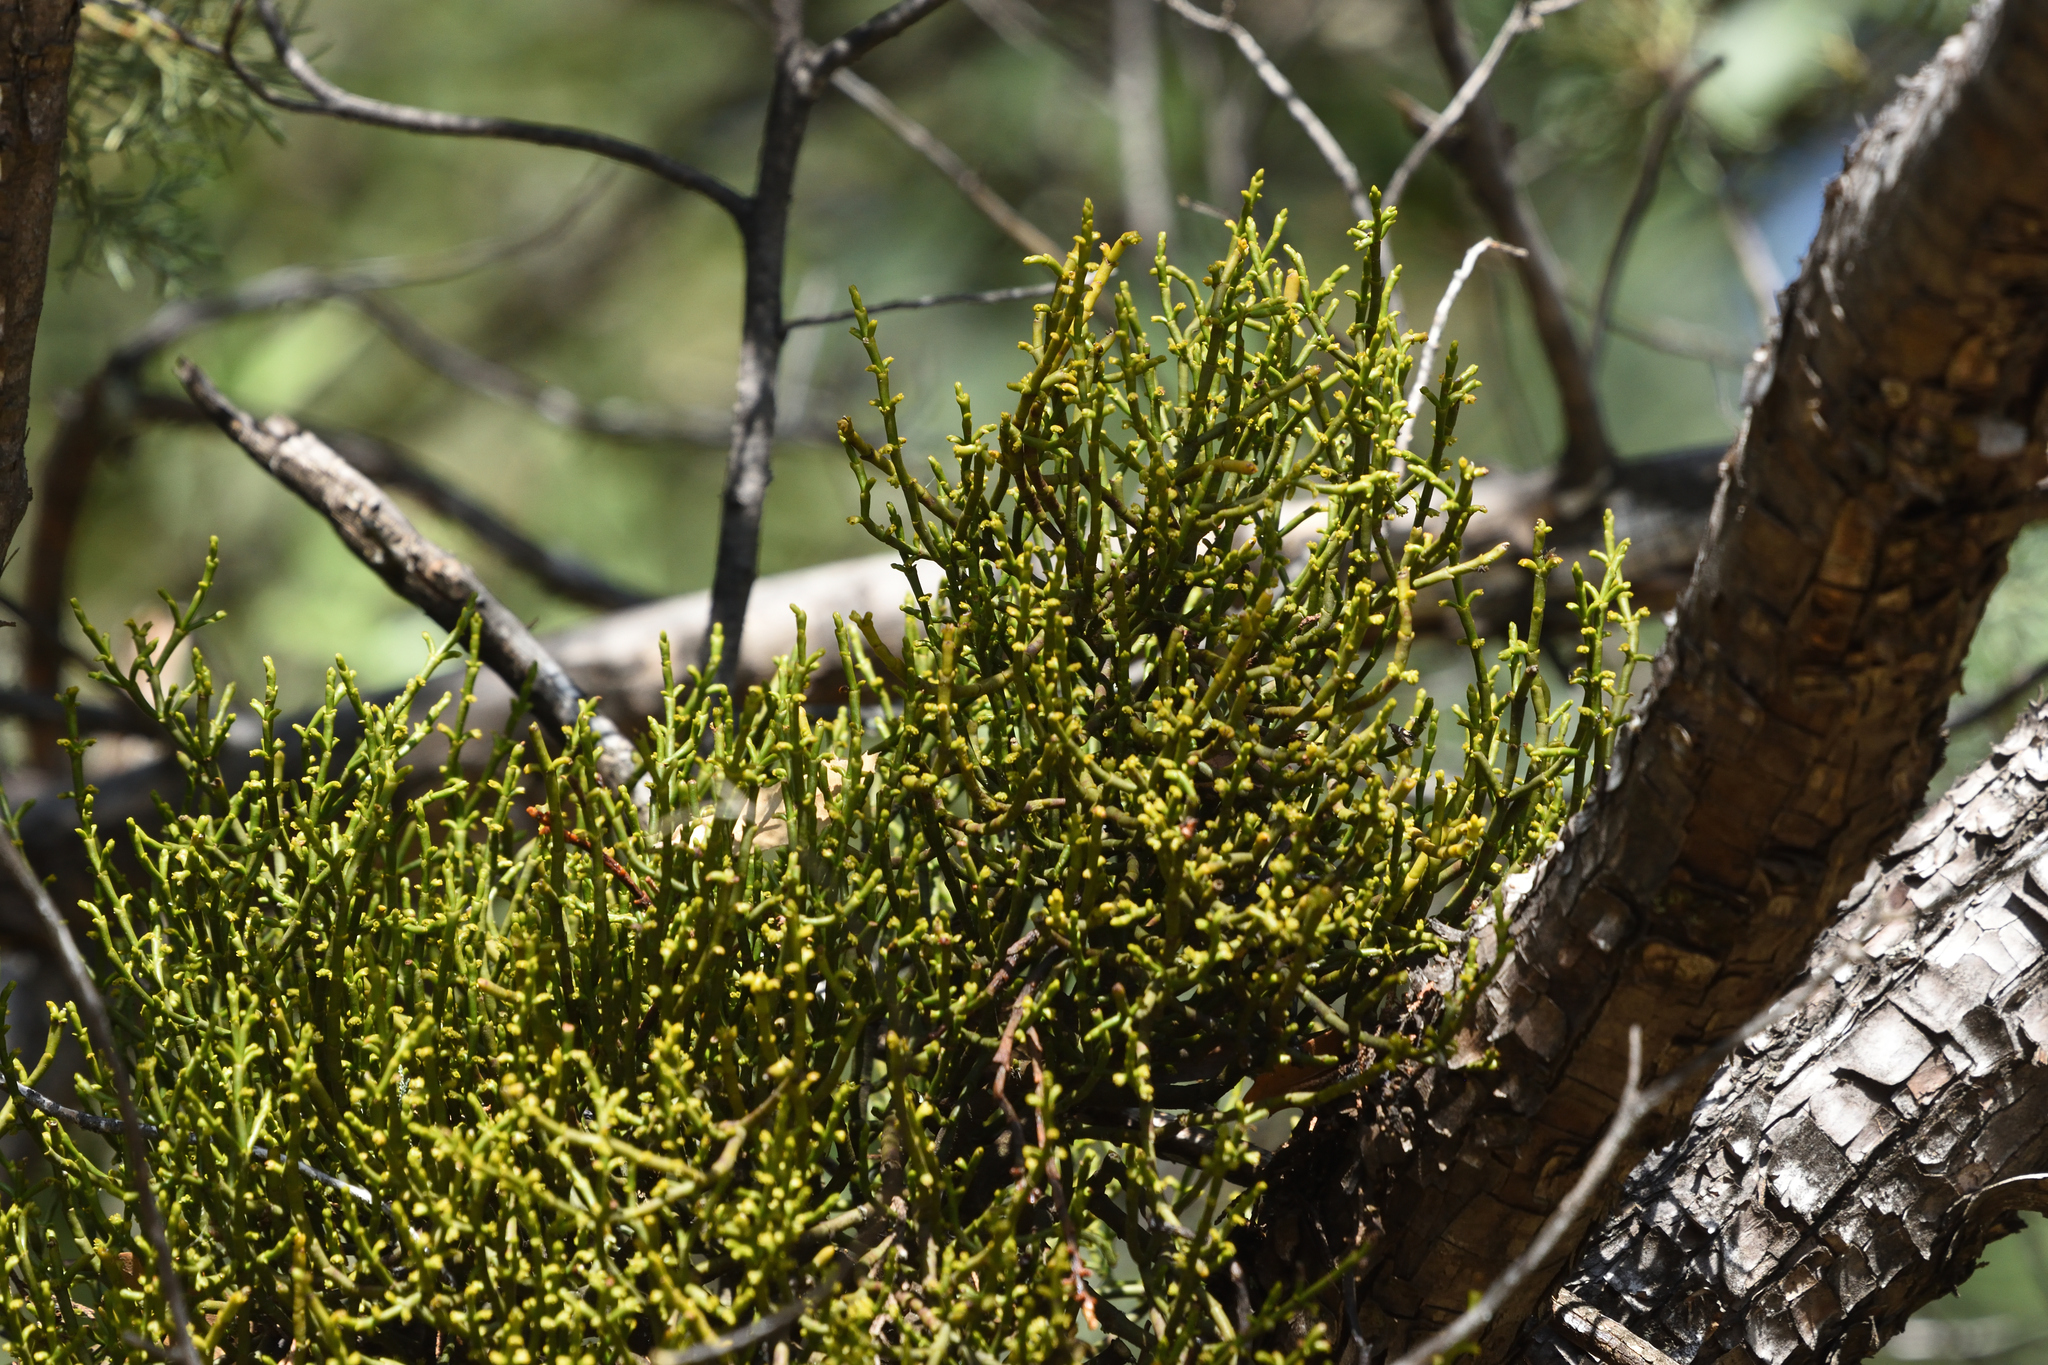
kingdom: Plantae
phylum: Tracheophyta
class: Magnoliopsida
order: Santalales
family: Viscaceae
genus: Phoradendron
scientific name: Phoradendron juniperinum
